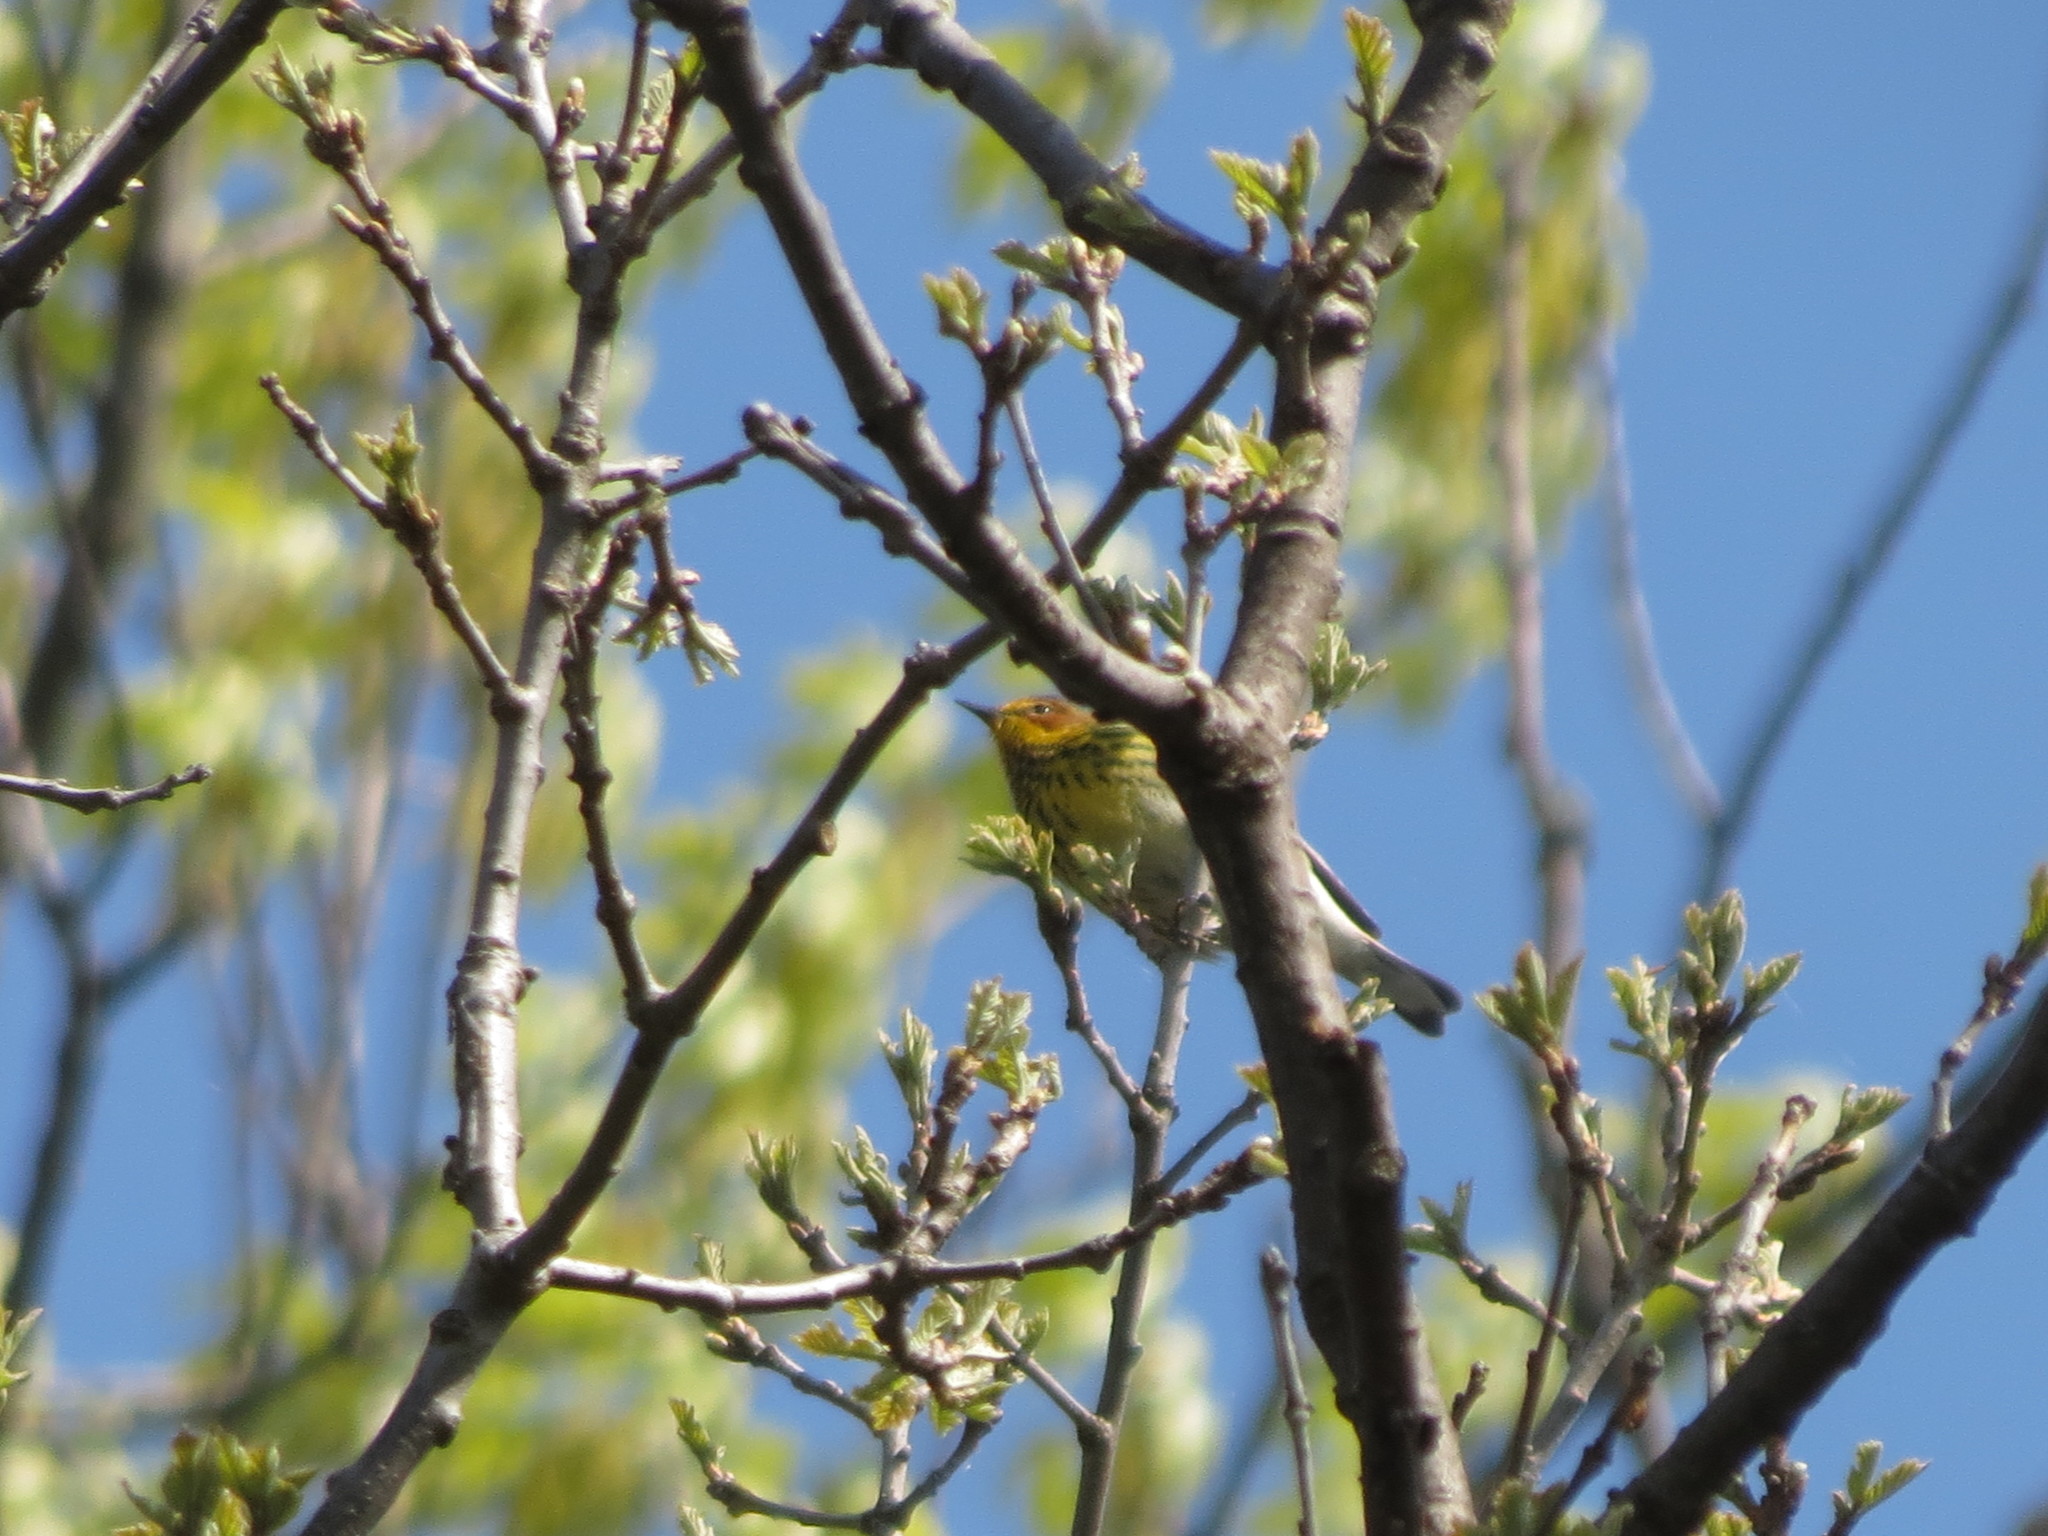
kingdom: Animalia
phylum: Chordata
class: Aves
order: Passeriformes
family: Parulidae
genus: Setophaga
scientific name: Setophaga tigrina
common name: Cape may warbler
